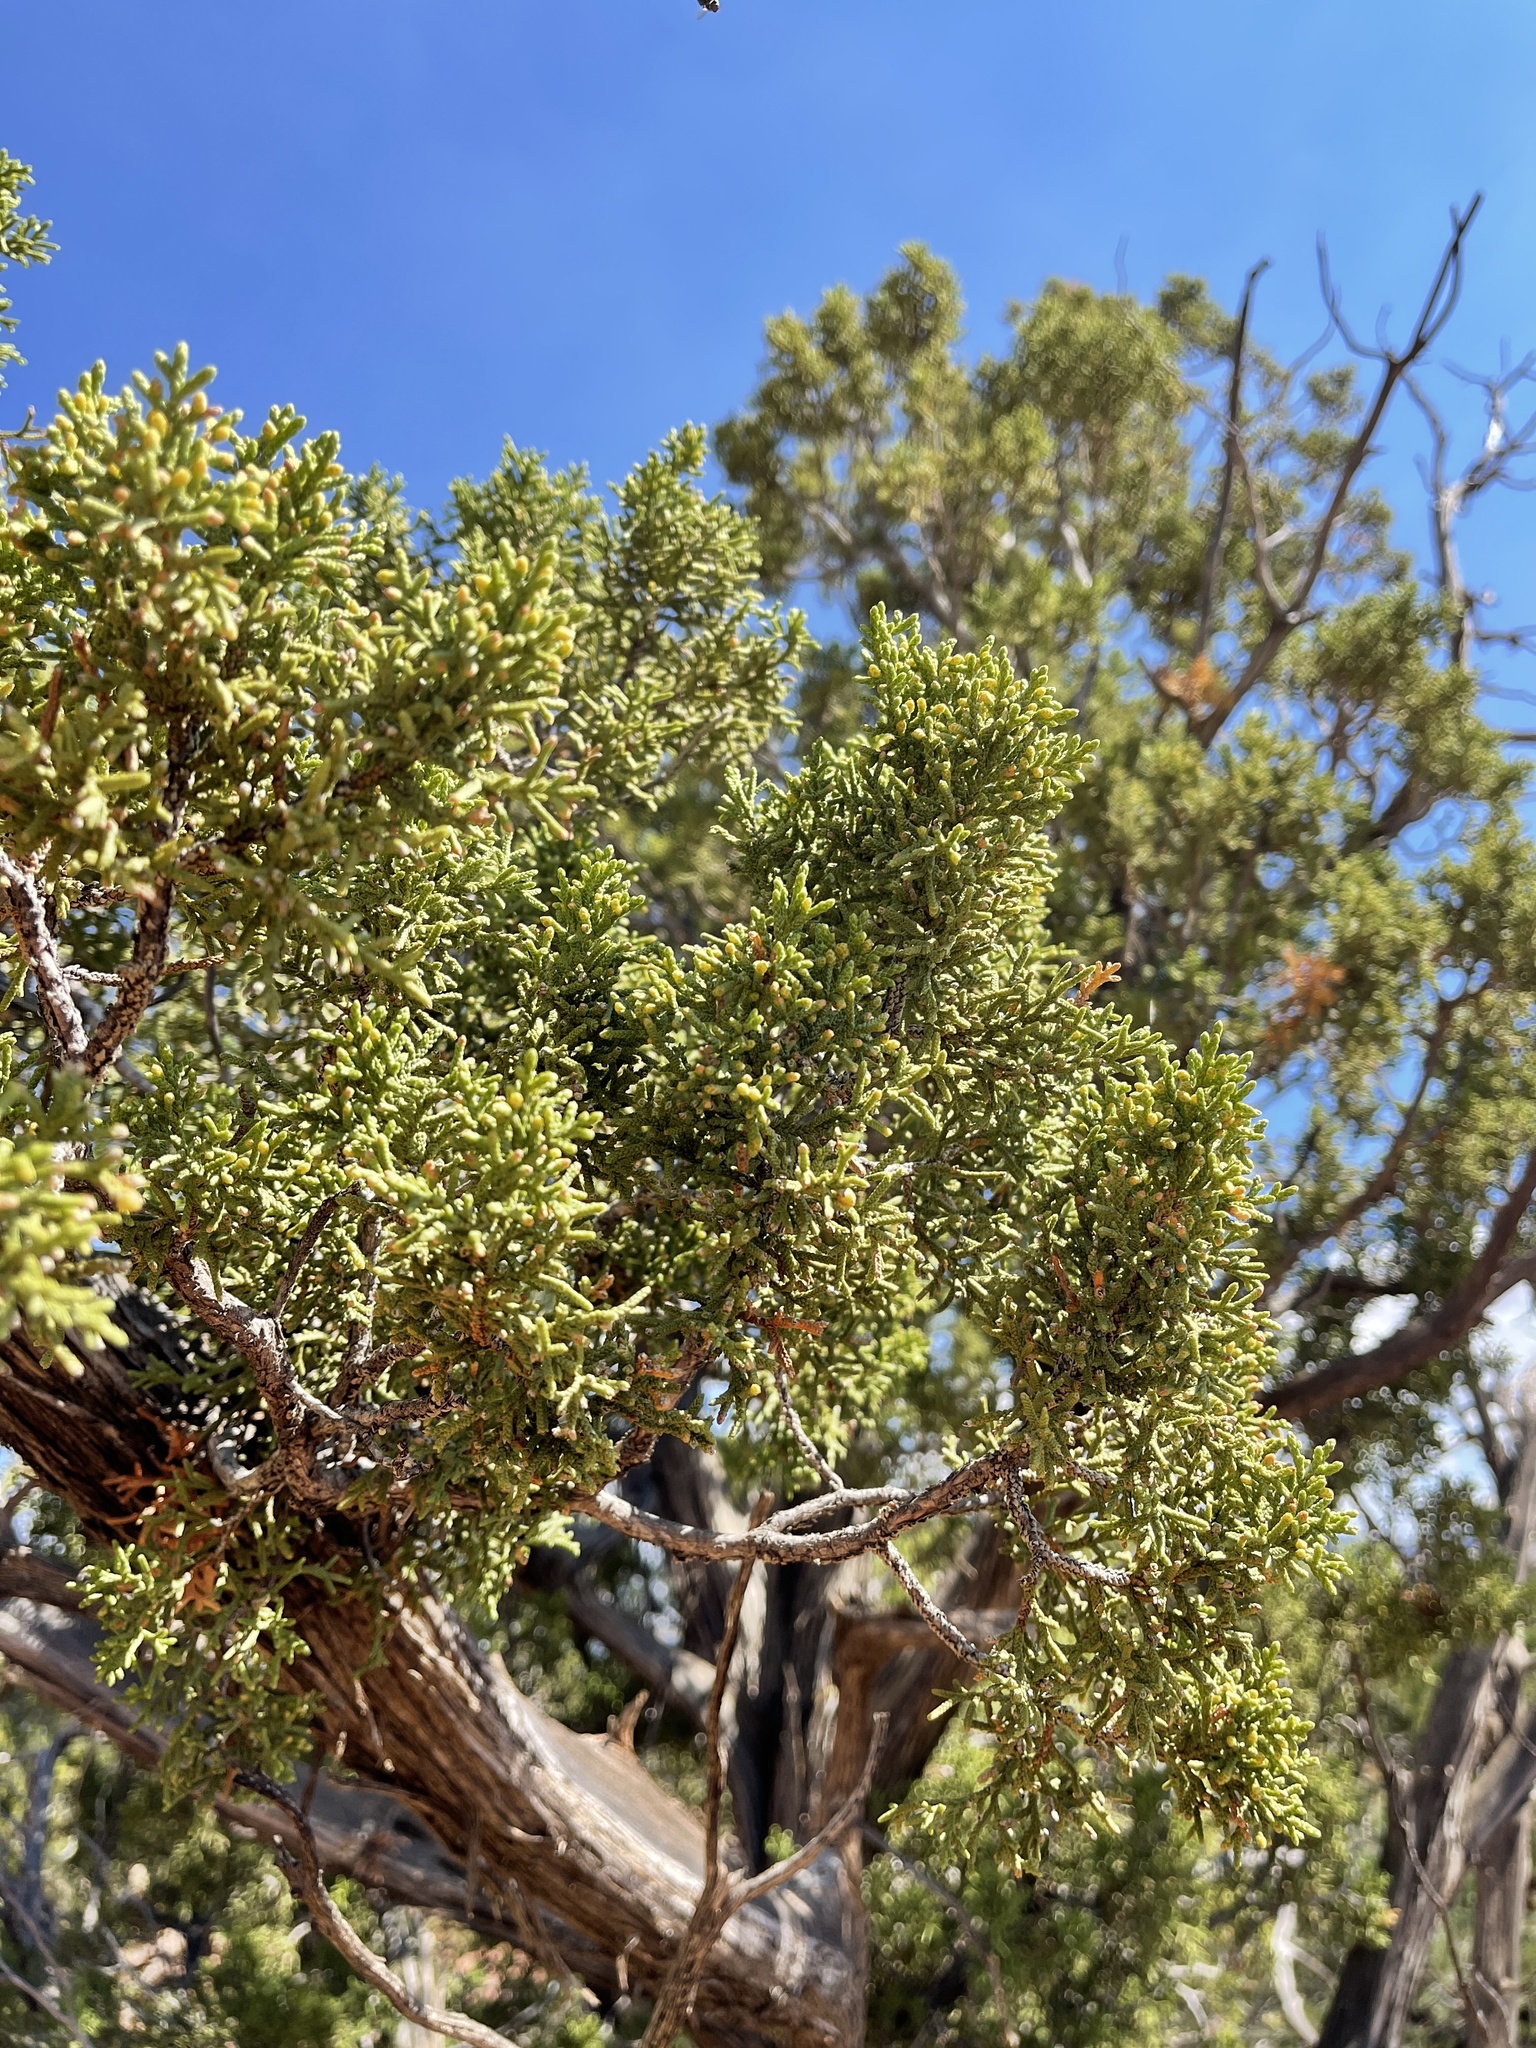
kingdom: Plantae
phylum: Tracheophyta
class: Pinopsida
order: Pinales
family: Cupressaceae
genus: Juniperus
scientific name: Juniperus osteosperma
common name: Utah juniper
